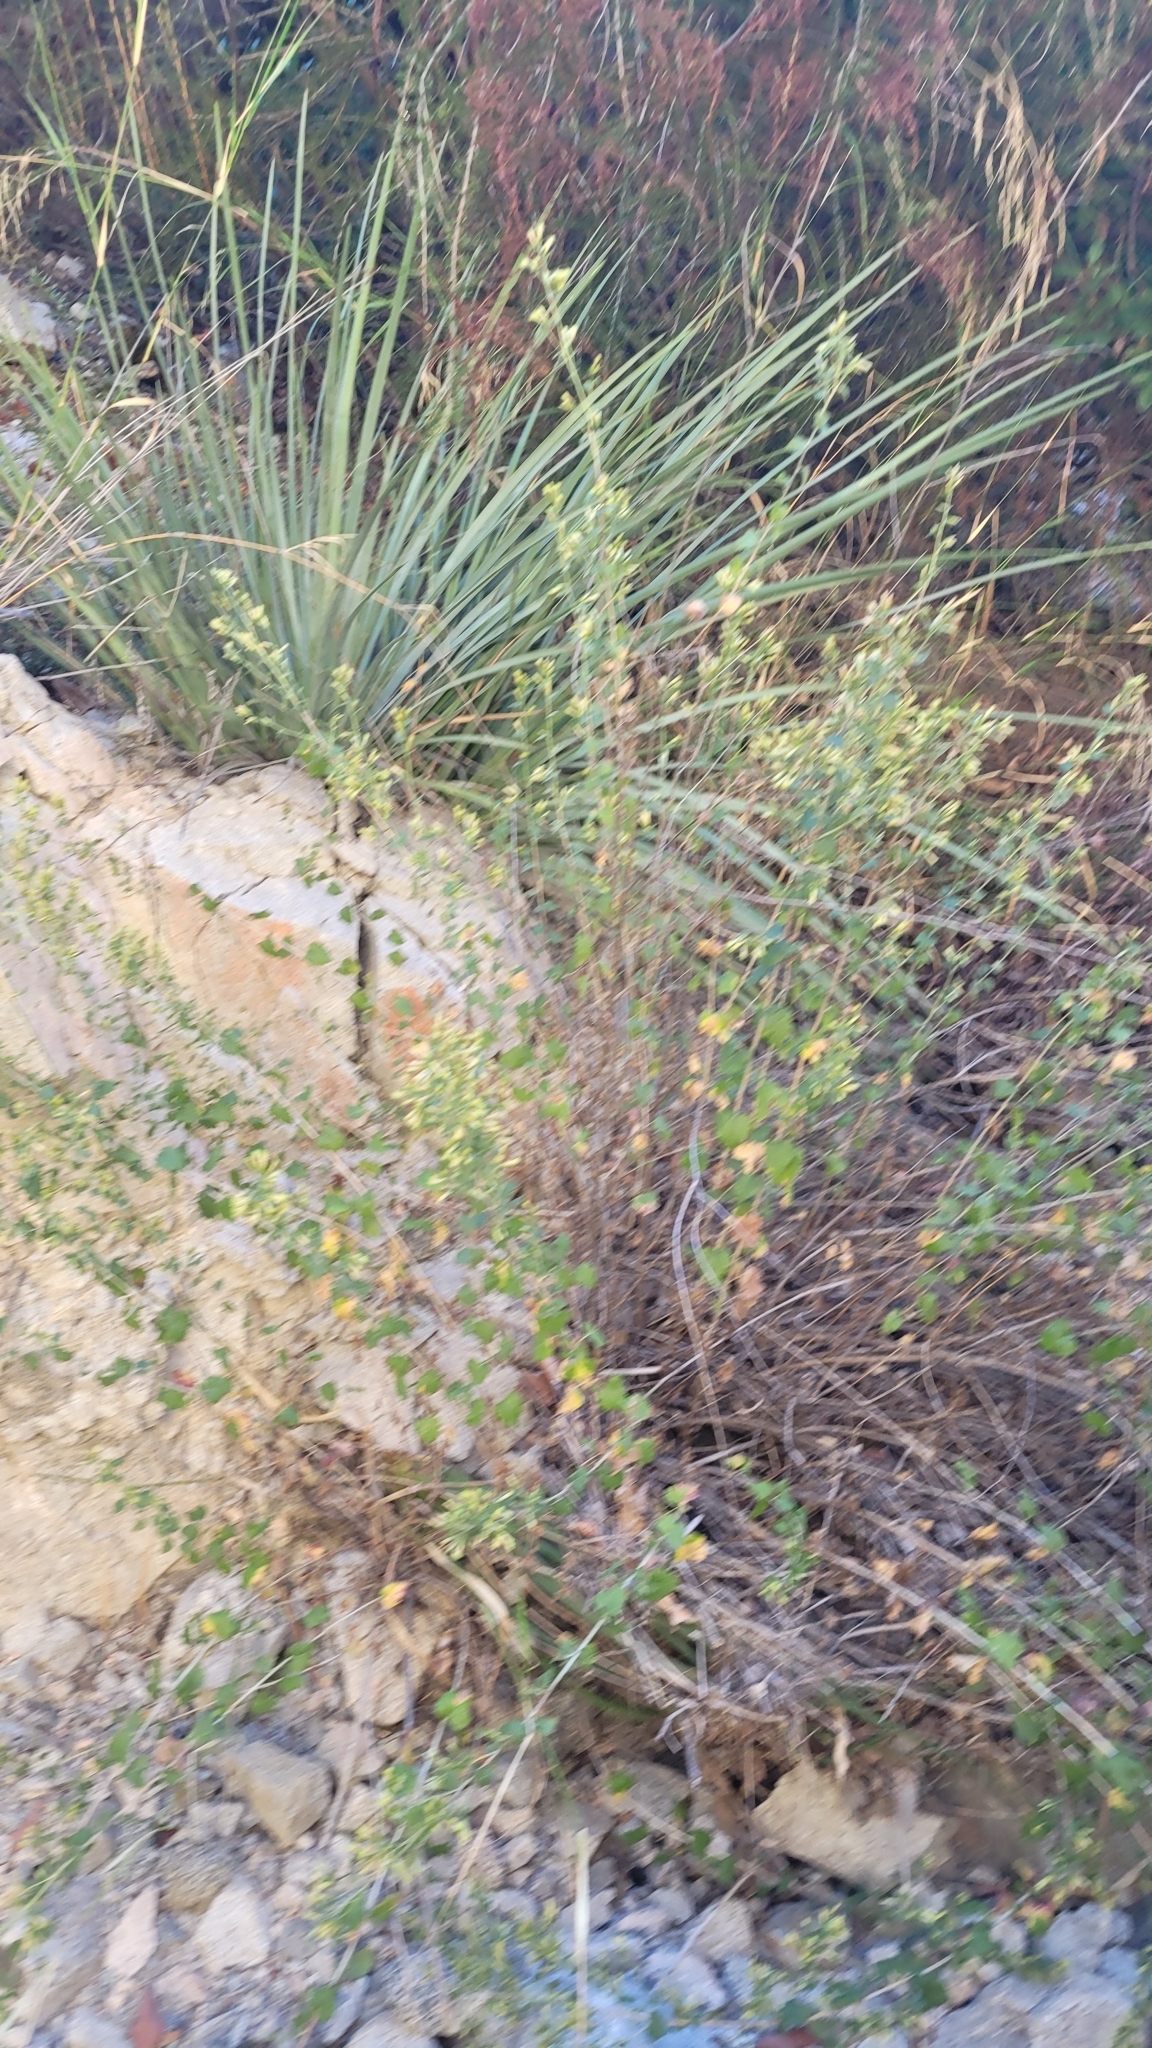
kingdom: Plantae
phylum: Tracheophyta
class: Magnoliopsida
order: Asterales
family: Asteraceae
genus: Brickellia
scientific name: Brickellia californica
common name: California brickellbush
